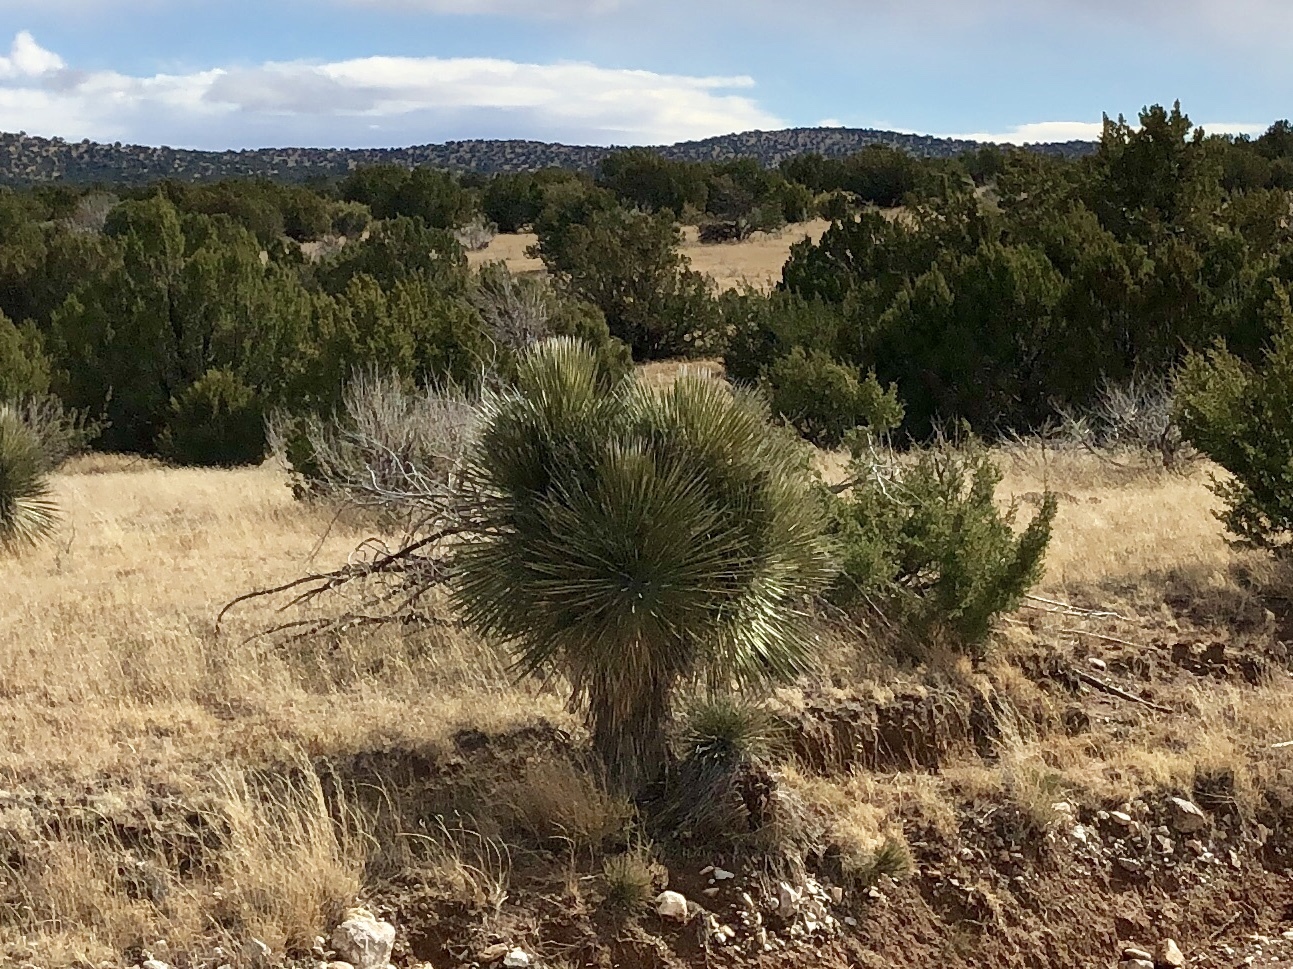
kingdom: Plantae
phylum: Tracheophyta
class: Liliopsida
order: Asparagales
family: Asparagaceae
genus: Yucca
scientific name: Yucca elata
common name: Palmella
